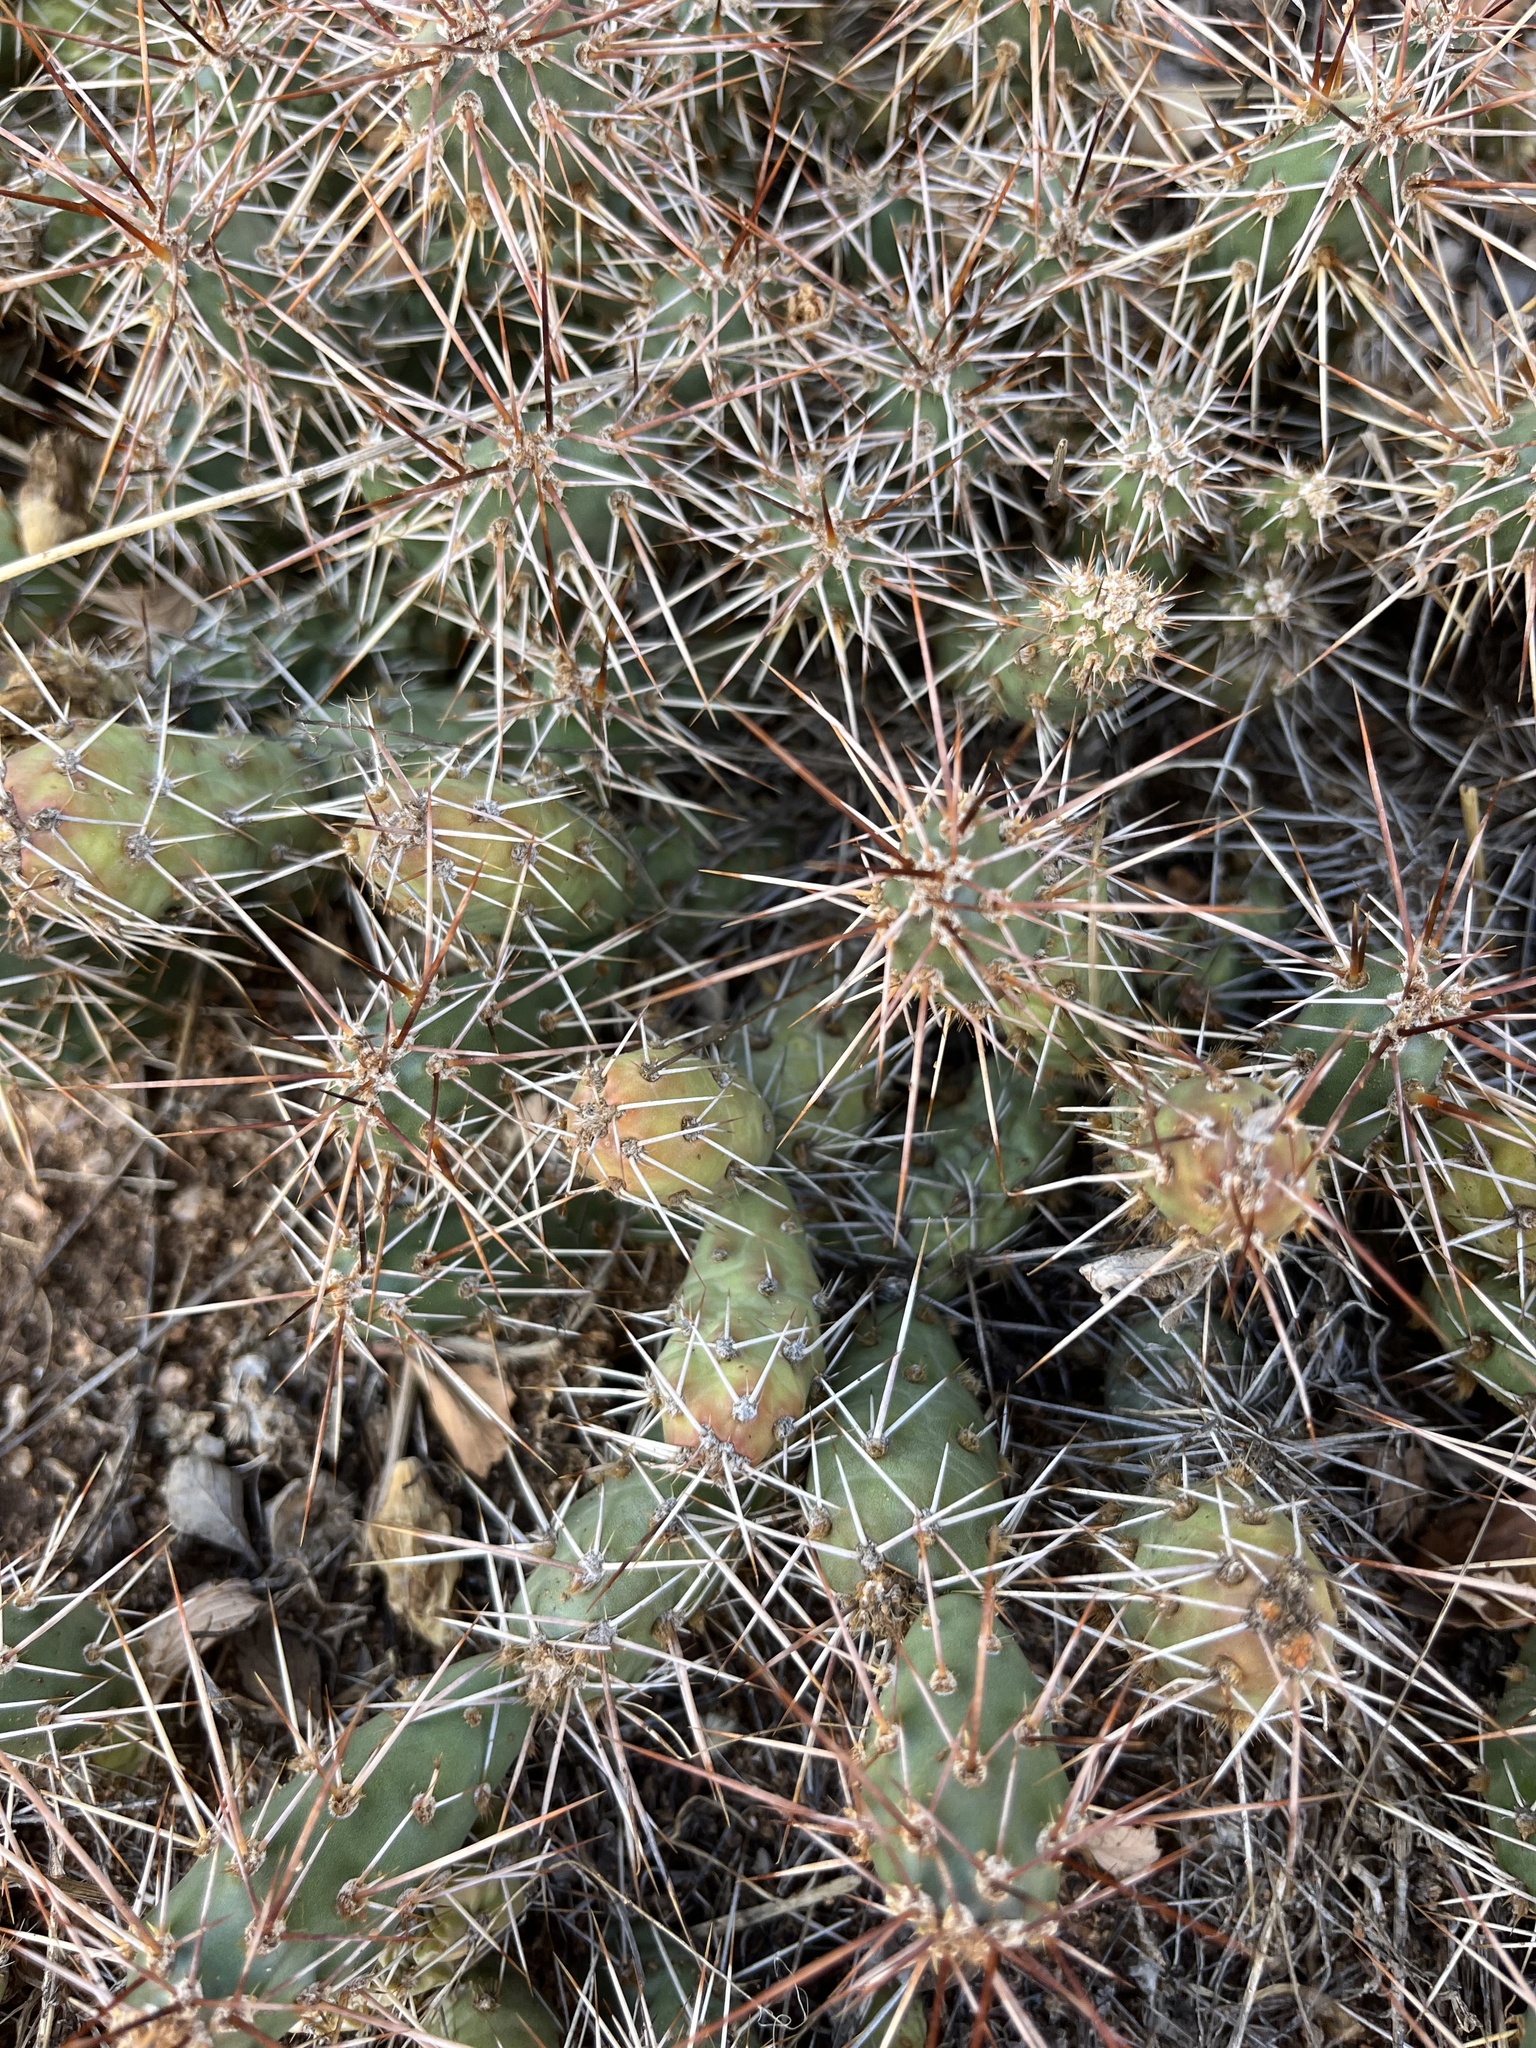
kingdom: Plantae
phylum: Tracheophyta
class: Magnoliopsida
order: Caryophyllales
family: Cactaceae
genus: Opuntia
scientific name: Opuntia fragilis
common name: Brittle cactus
